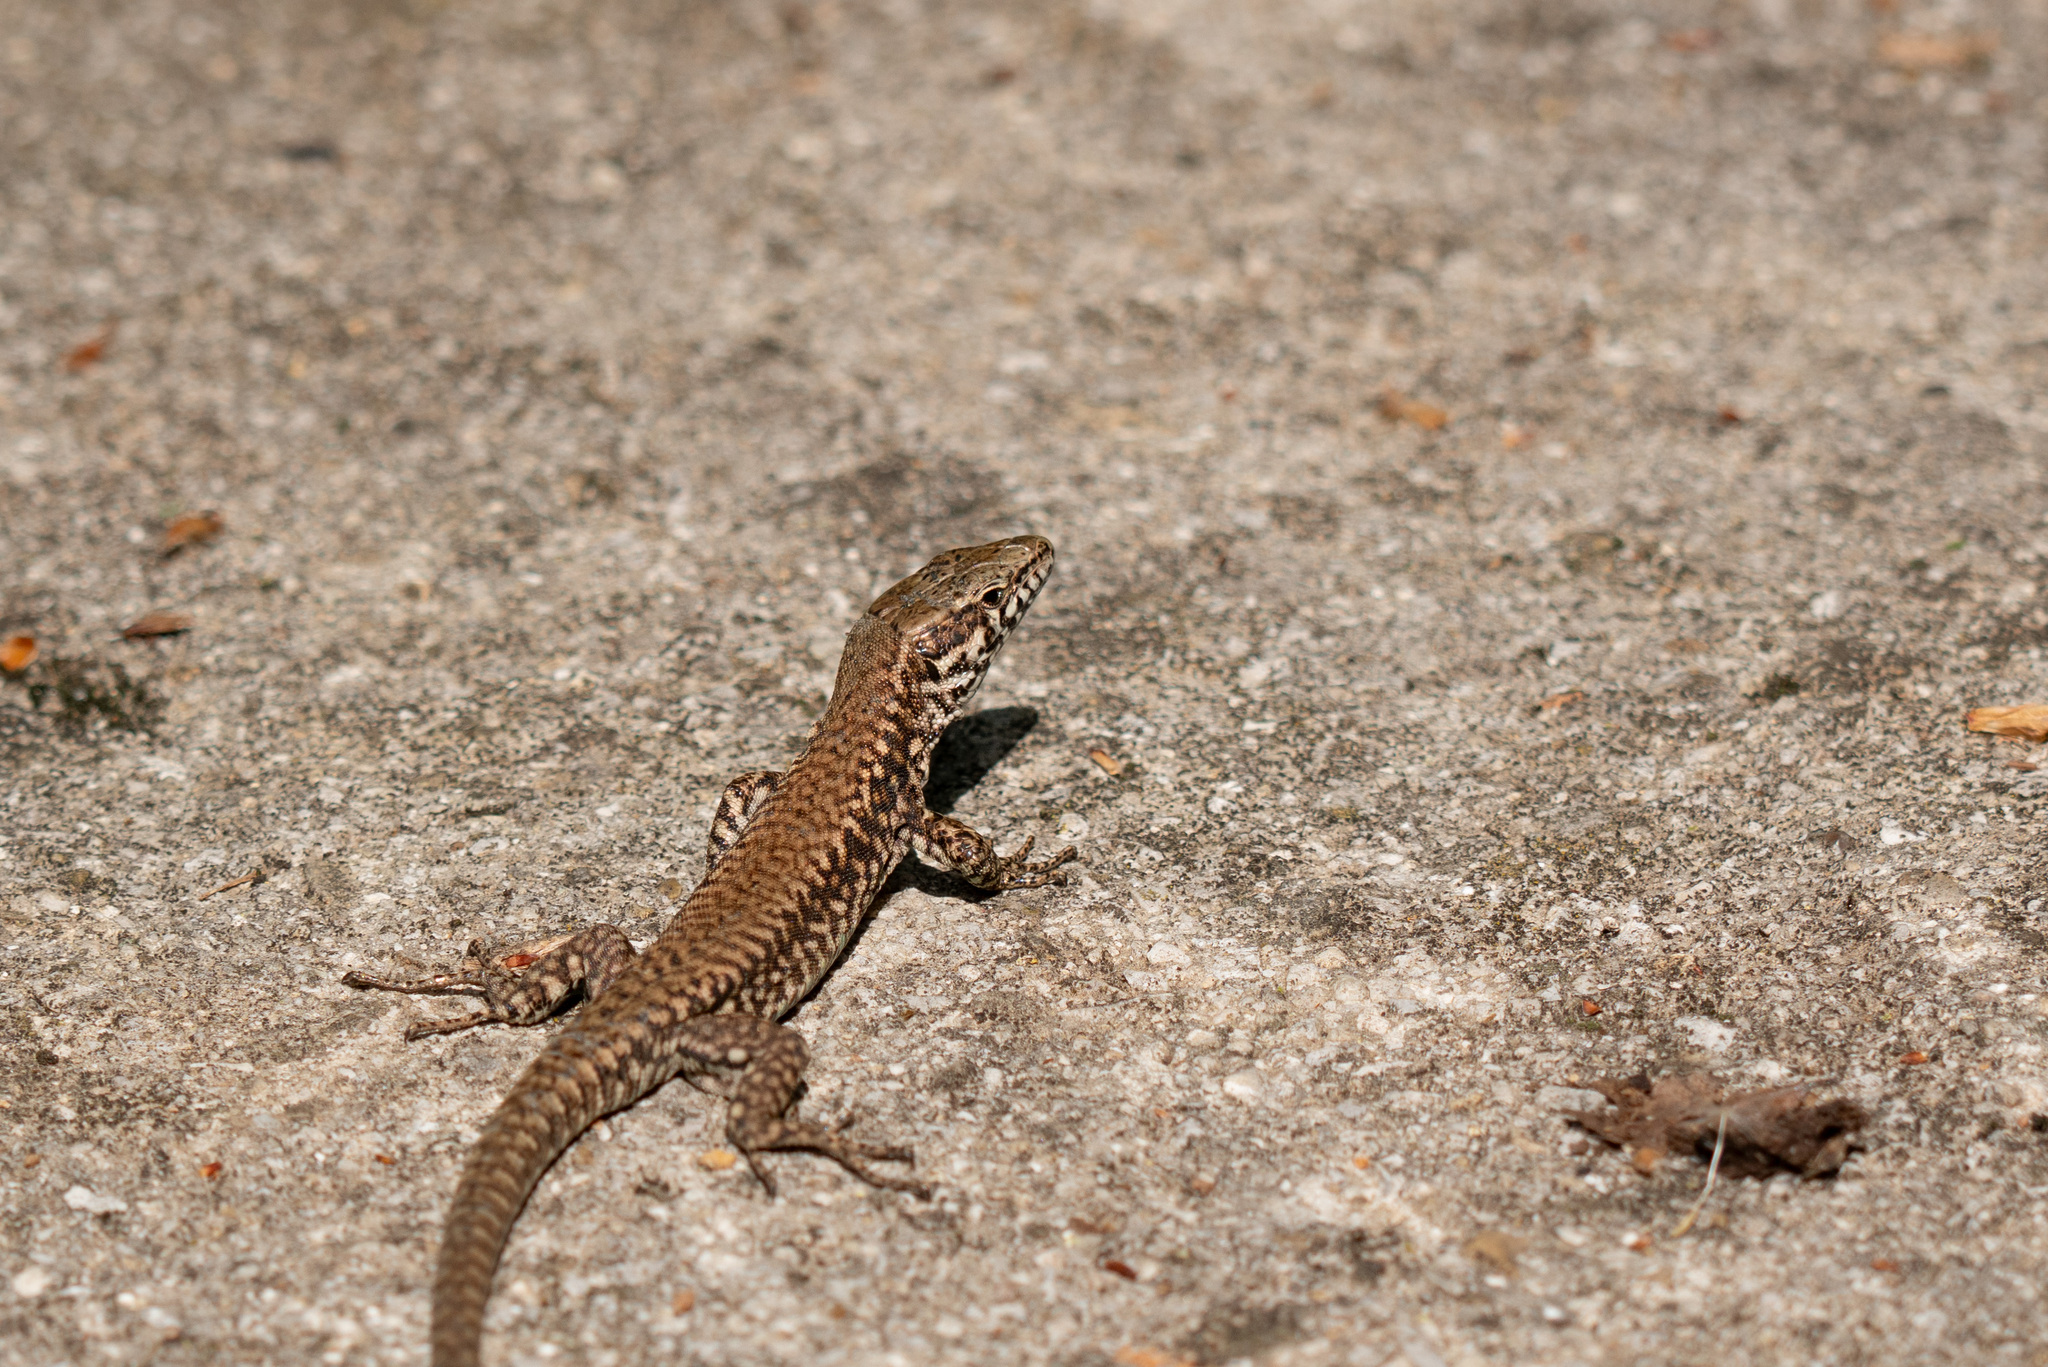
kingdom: Animalia
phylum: Chordata
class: Squamata
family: Lacertidae
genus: Podarcis
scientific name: Podarcis muralis
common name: Common wall lizard
